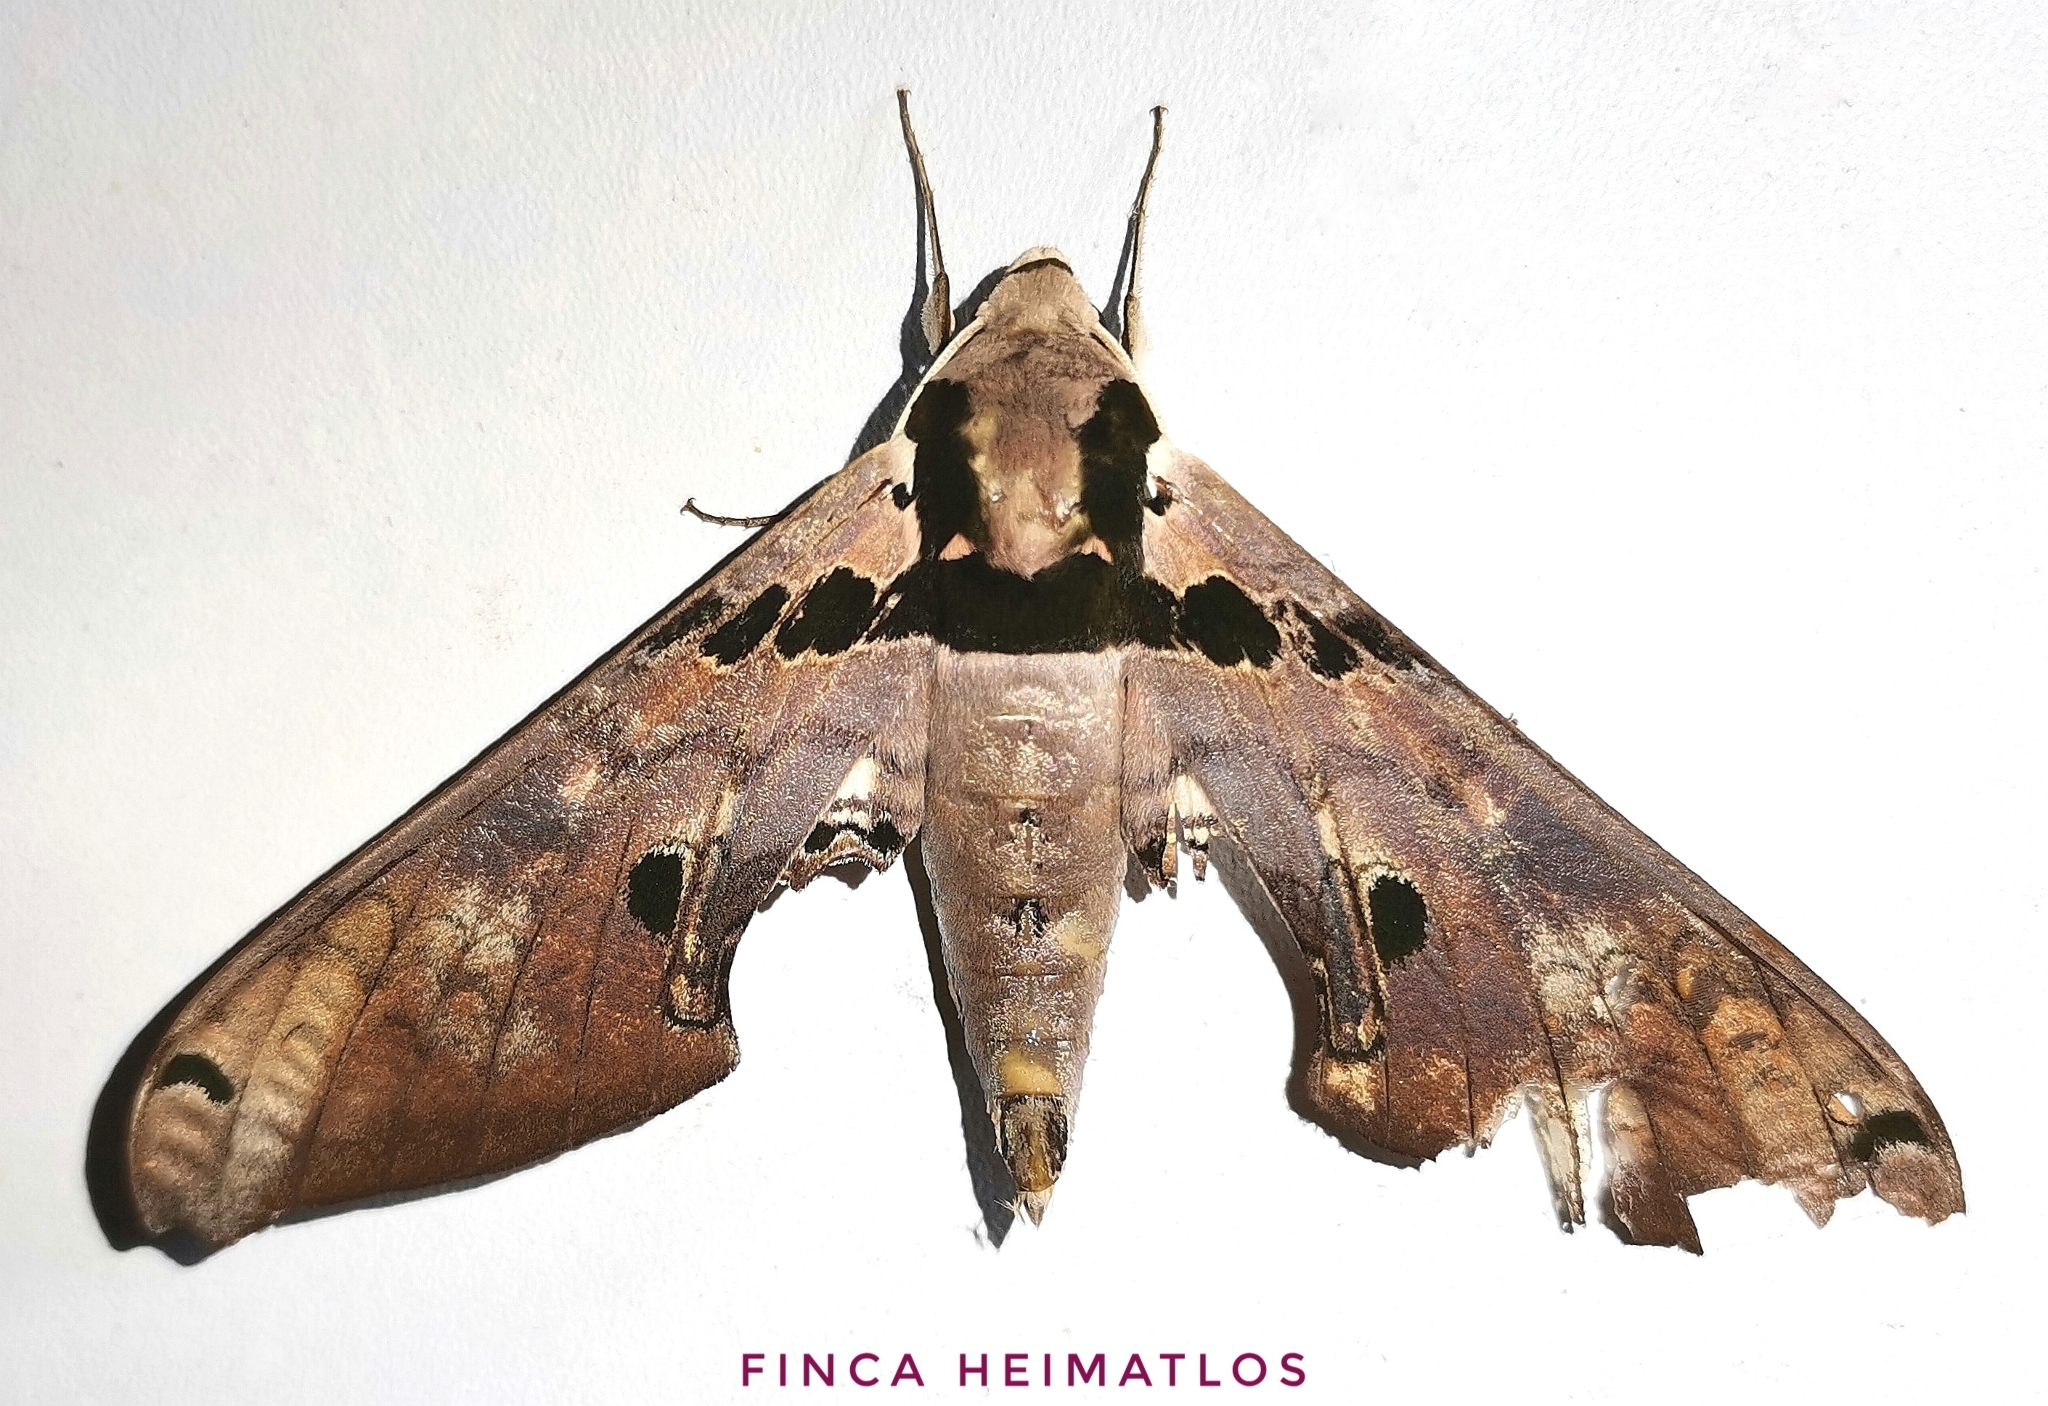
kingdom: Animalia
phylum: Arthropoda
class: Insecta
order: Lepidoptera
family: Sphingidae
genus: Adhemarius
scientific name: Adhemarius gannascus
